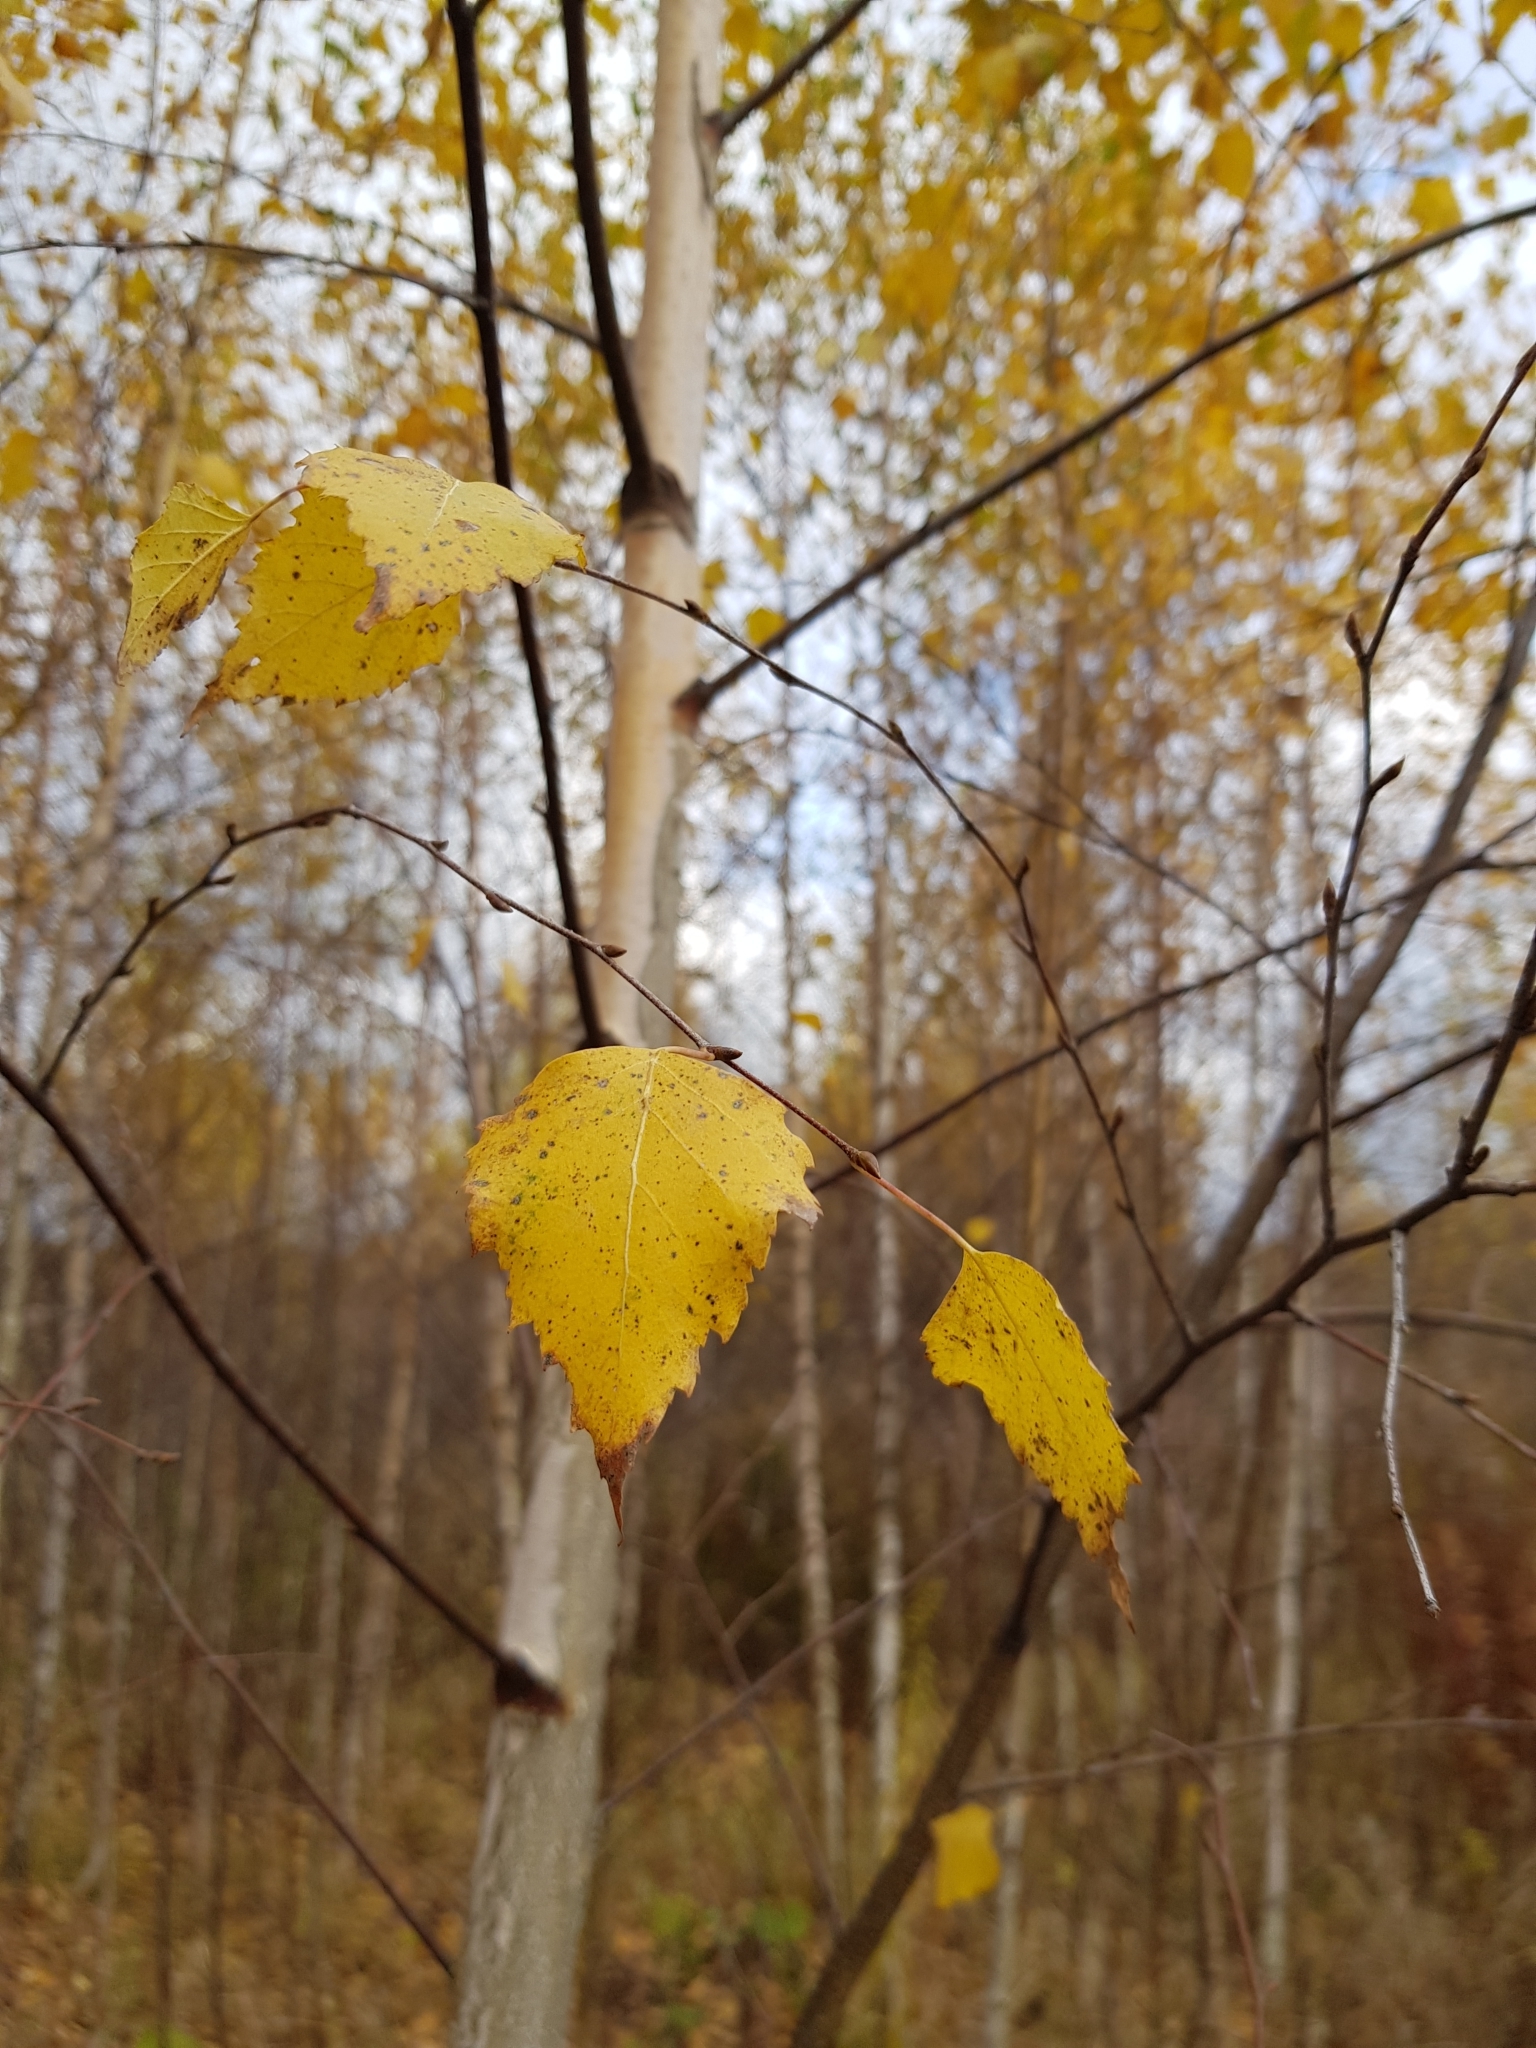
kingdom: Plantae
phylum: Tracheophyta
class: Magnoliopsida
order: Fagales
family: Betulaceae
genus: Betula
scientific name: Betula pendula
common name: Silver birch
